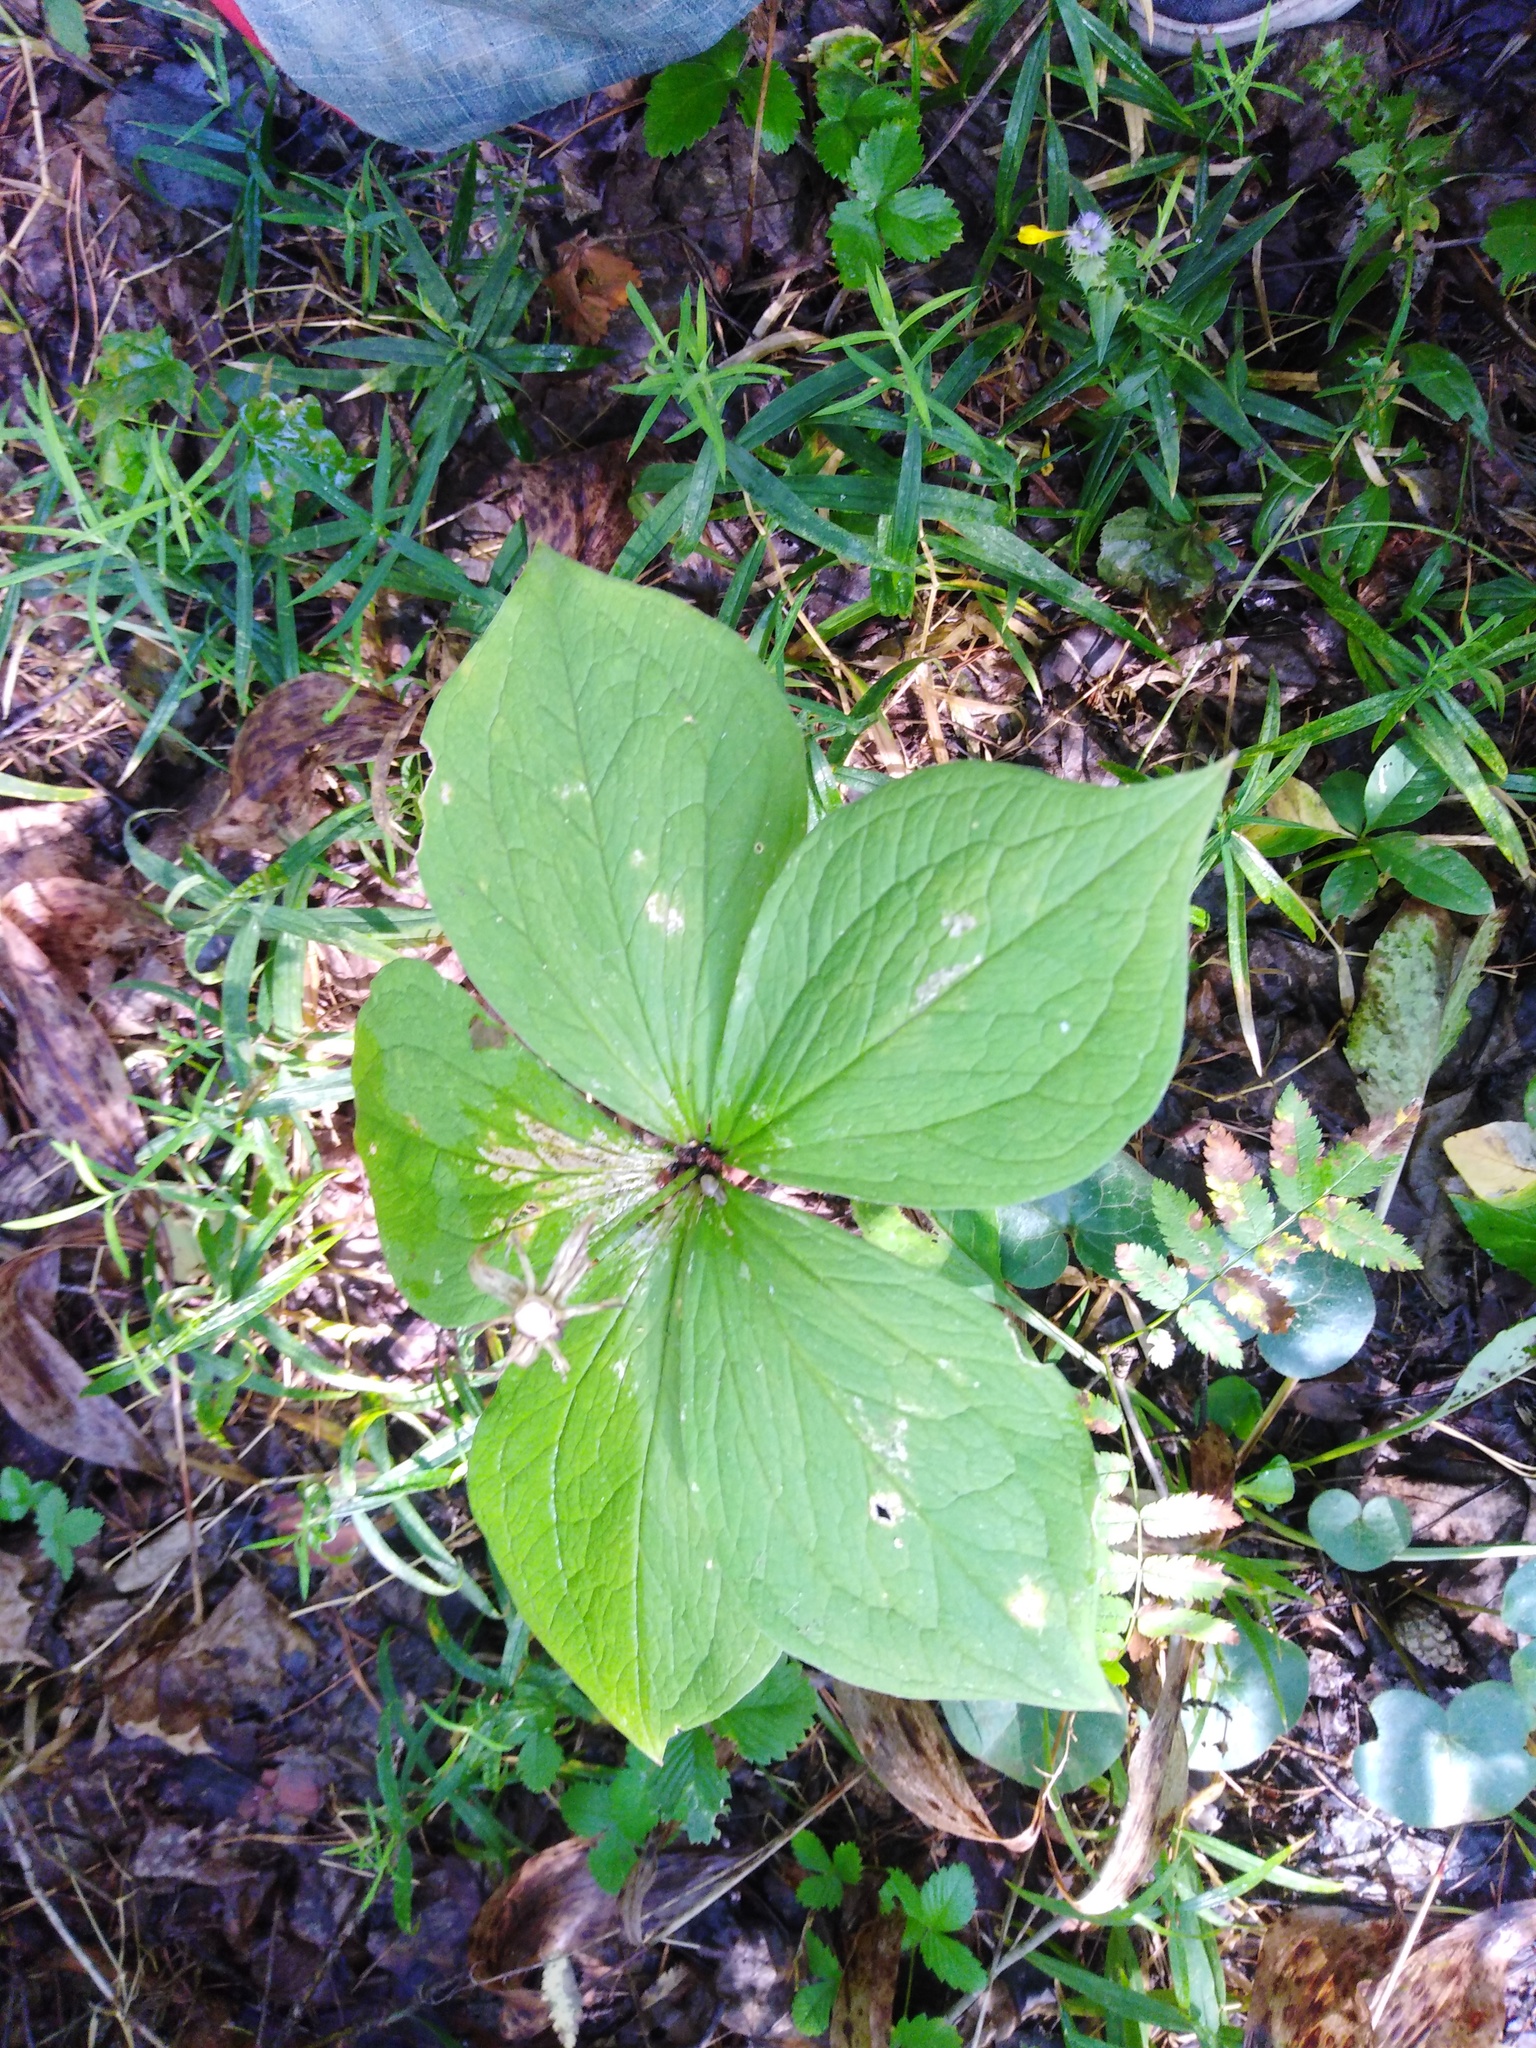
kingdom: Plantae
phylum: Tracheophyta
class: Liliopsida
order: Liliales
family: Melanthiaceae
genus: Paris
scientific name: Paris quadrifolia
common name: Herb-paris
